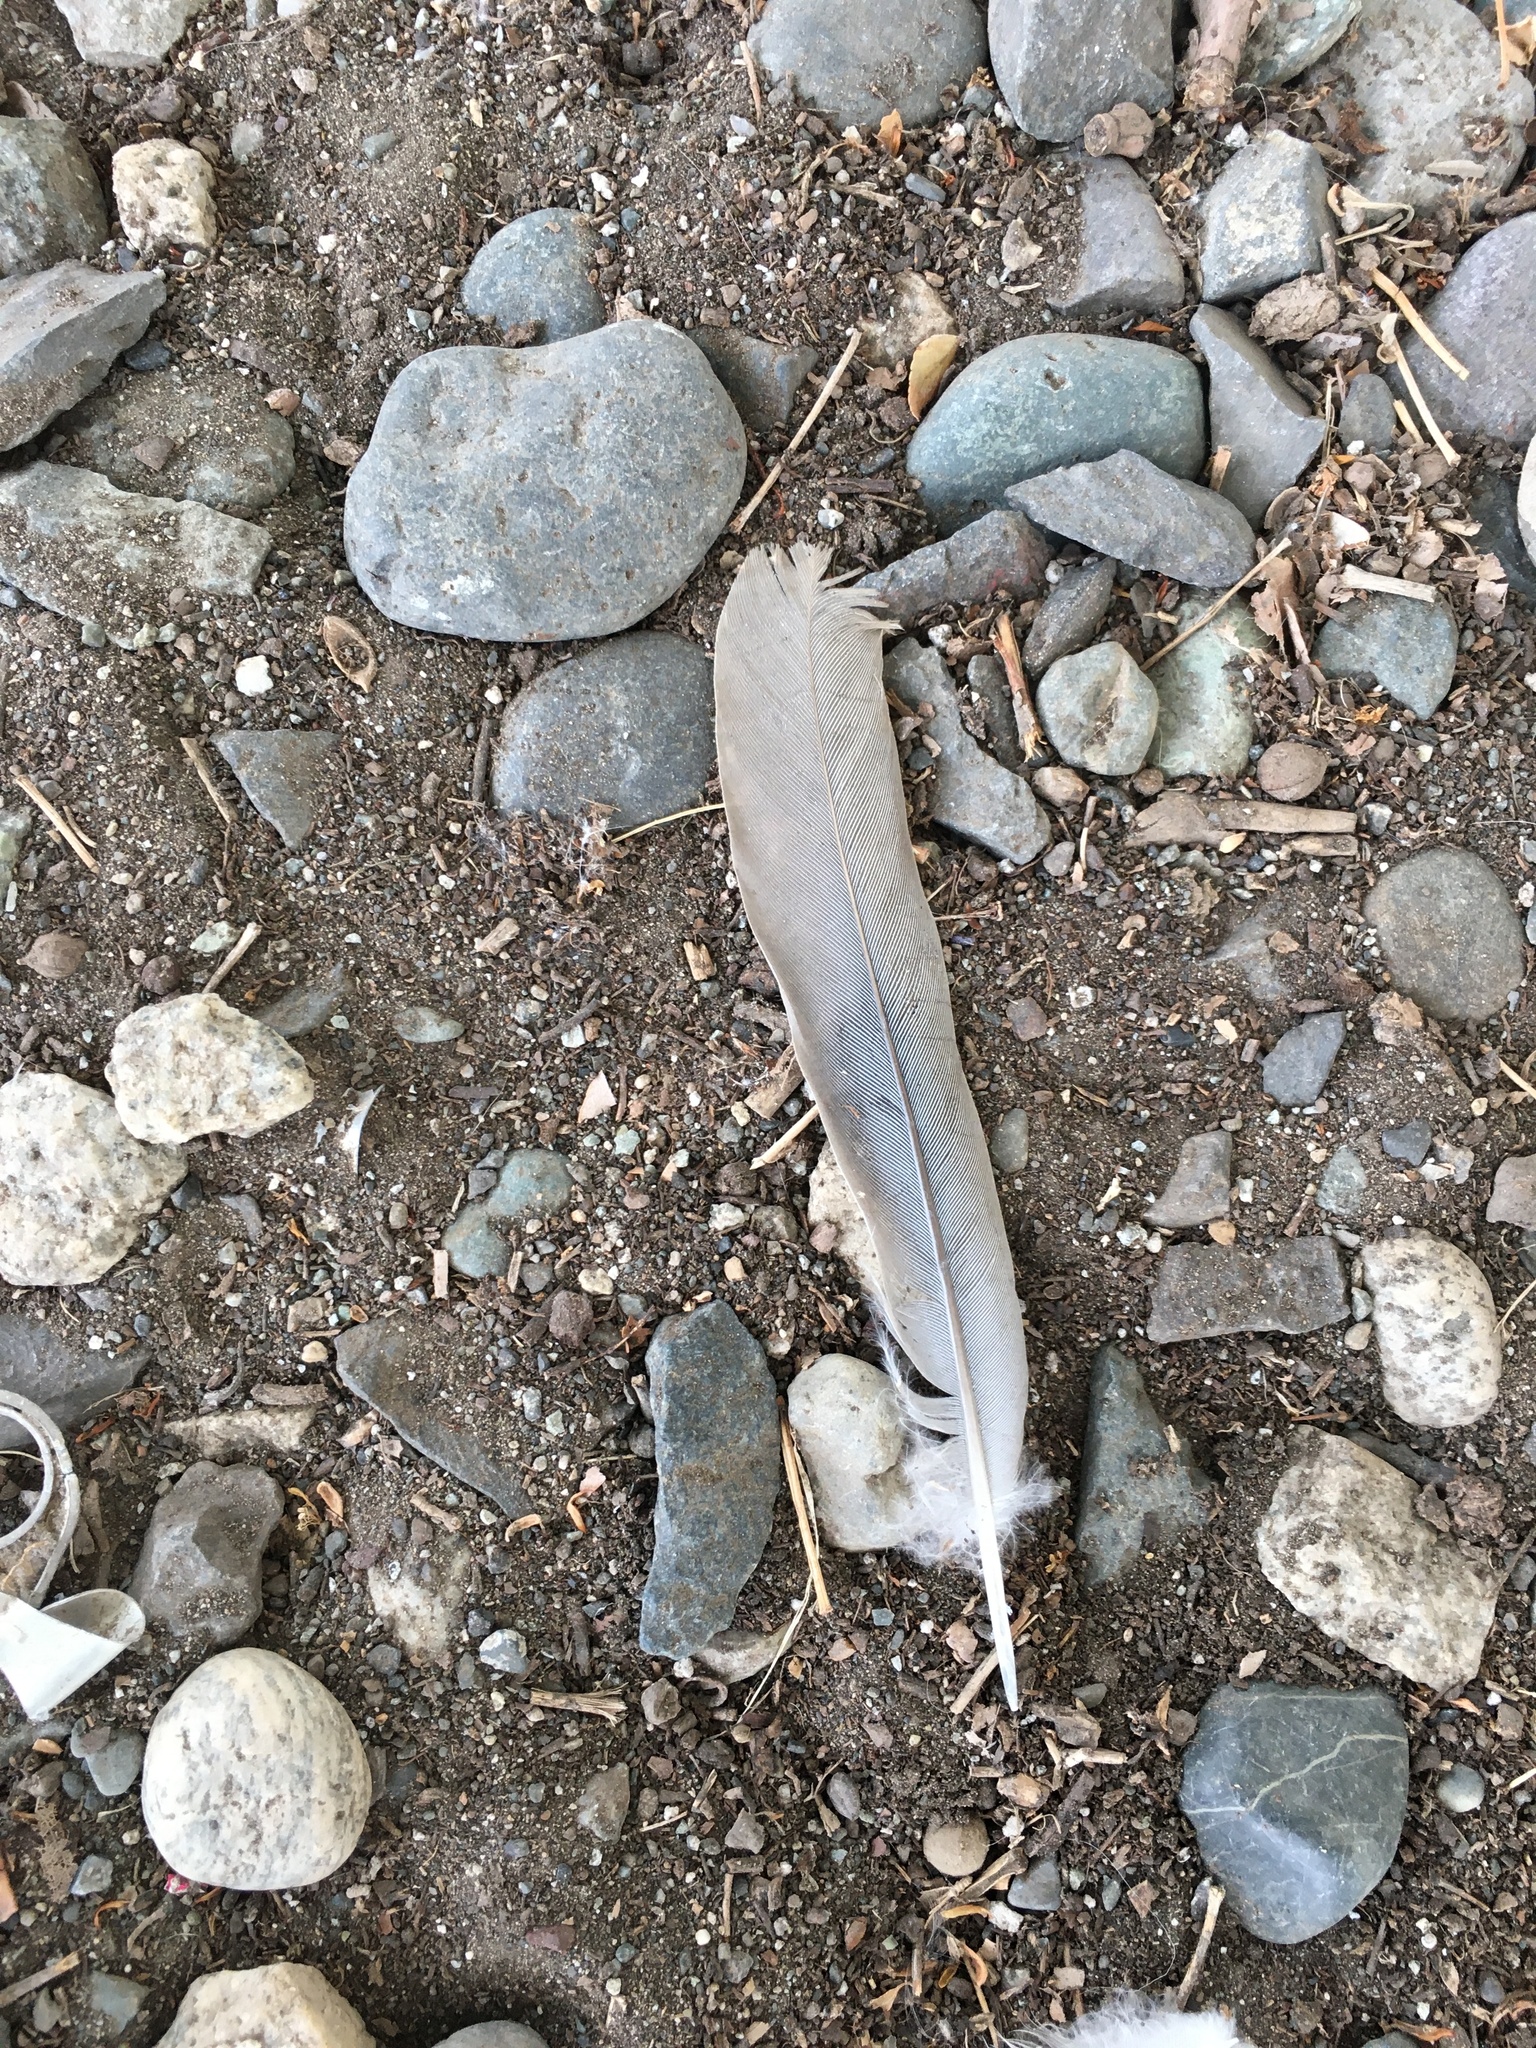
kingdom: Animalia
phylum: Chordata
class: Aves
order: Columbiformes
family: Columbidae
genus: Streptopelia
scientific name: Streptopelia decaocto
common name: Eurasian collared dove
